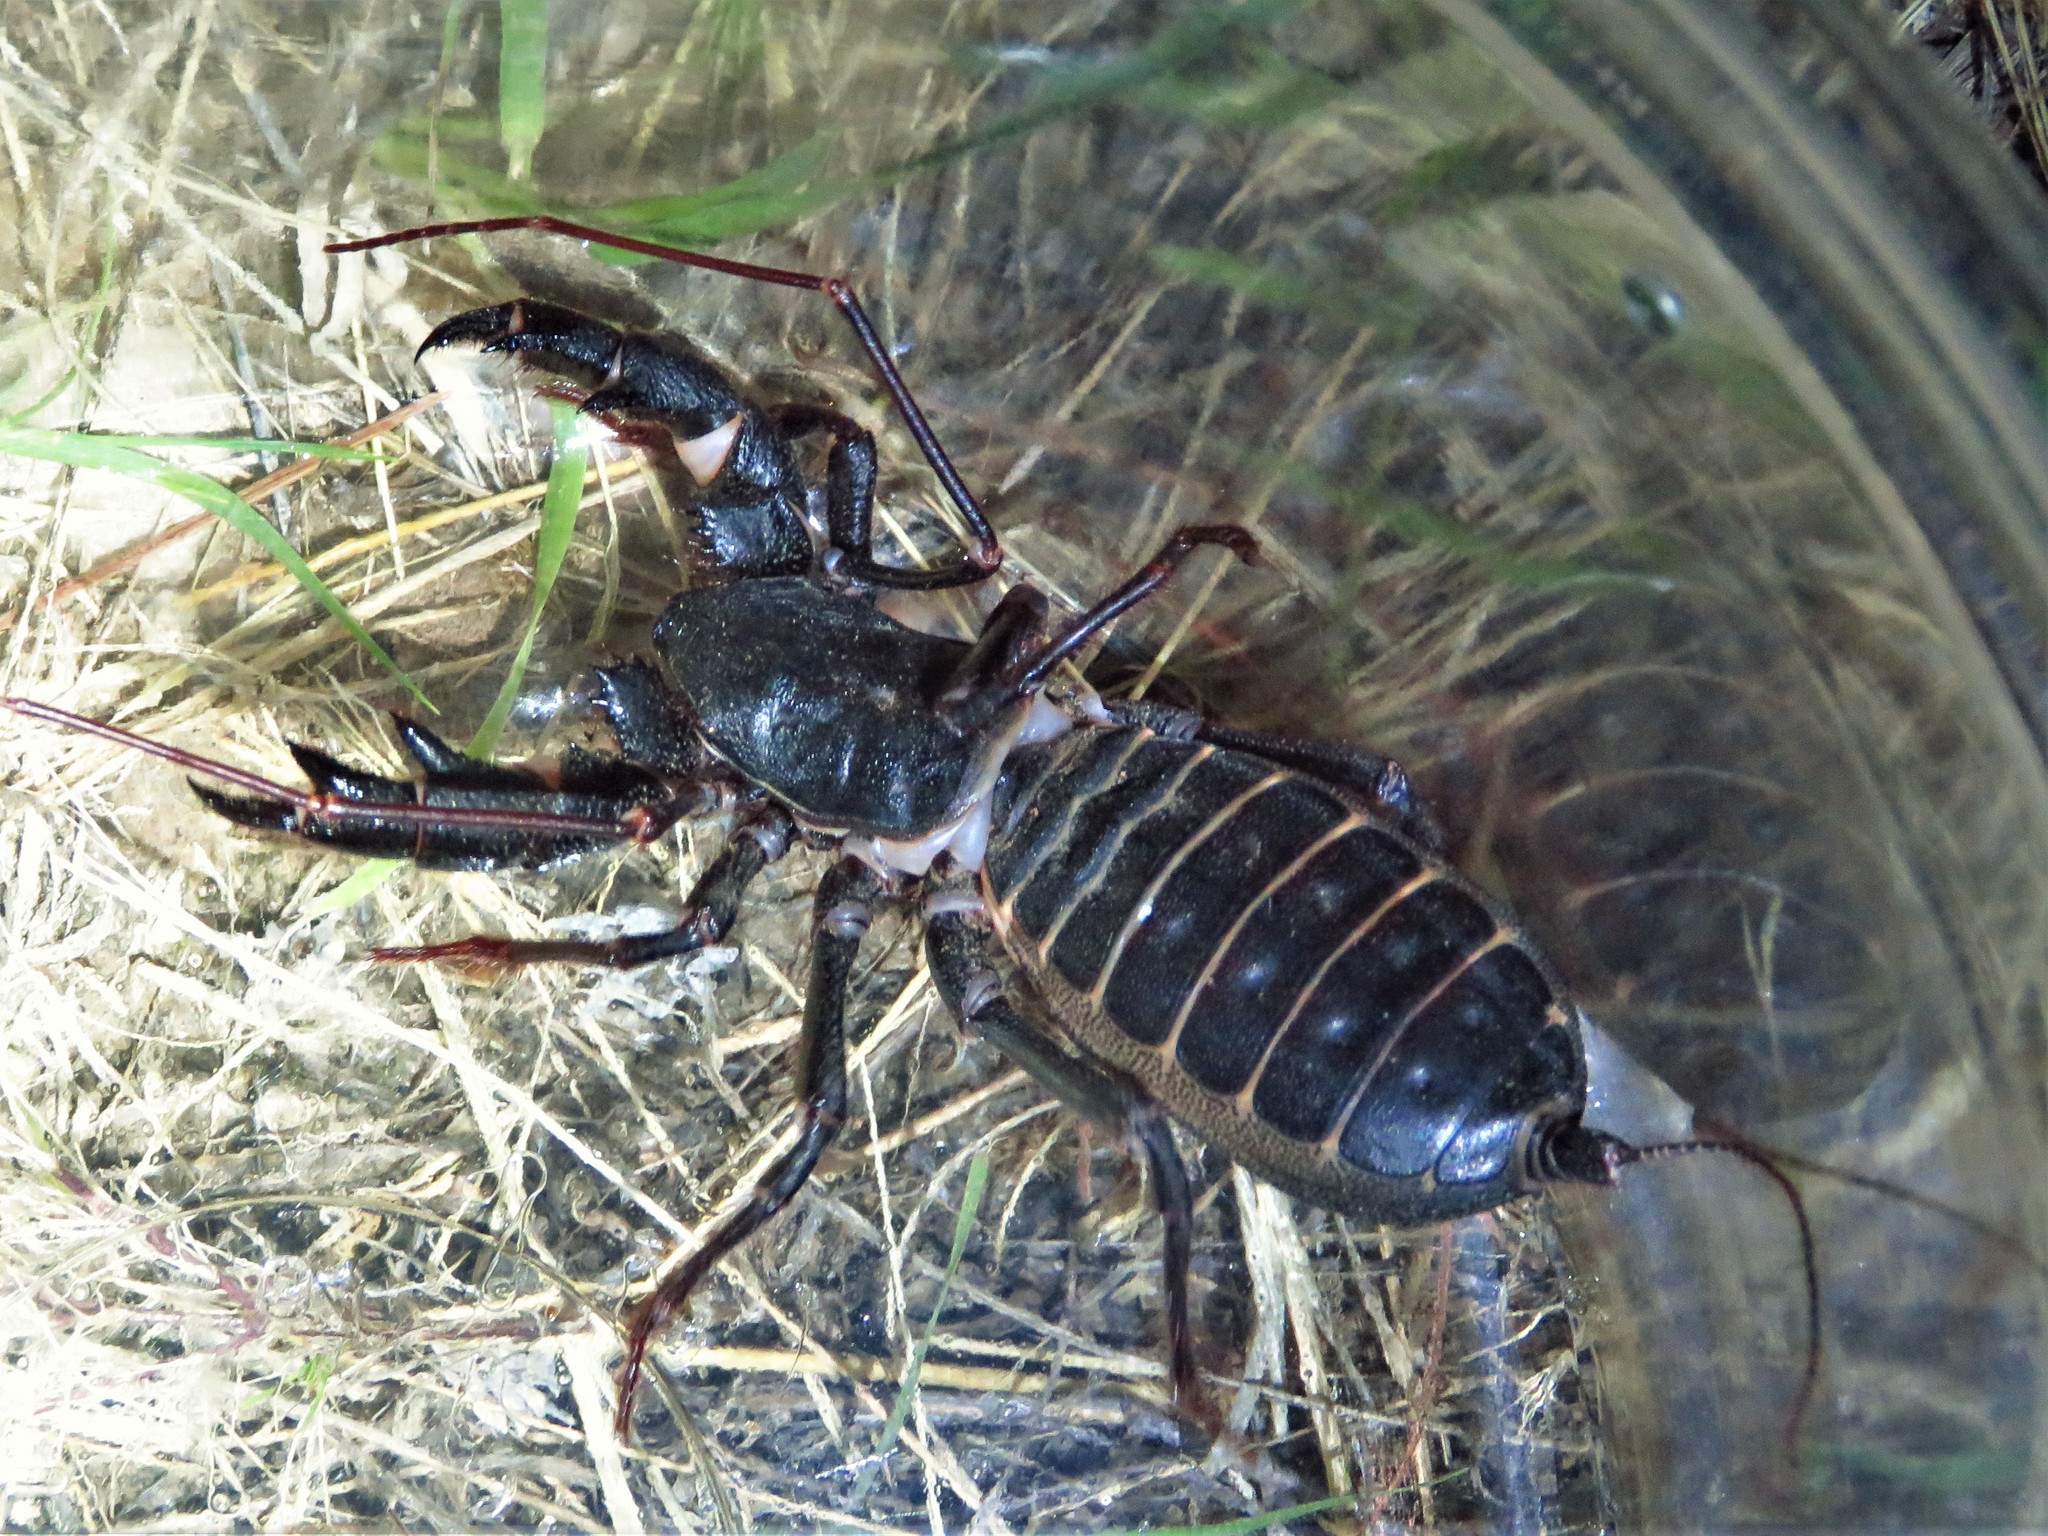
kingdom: Animalia
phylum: Arthropoda
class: Arachnida
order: Uropygi
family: Thelyphonidae
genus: Mastigoproctus
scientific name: Mastigoproctus giganteus
